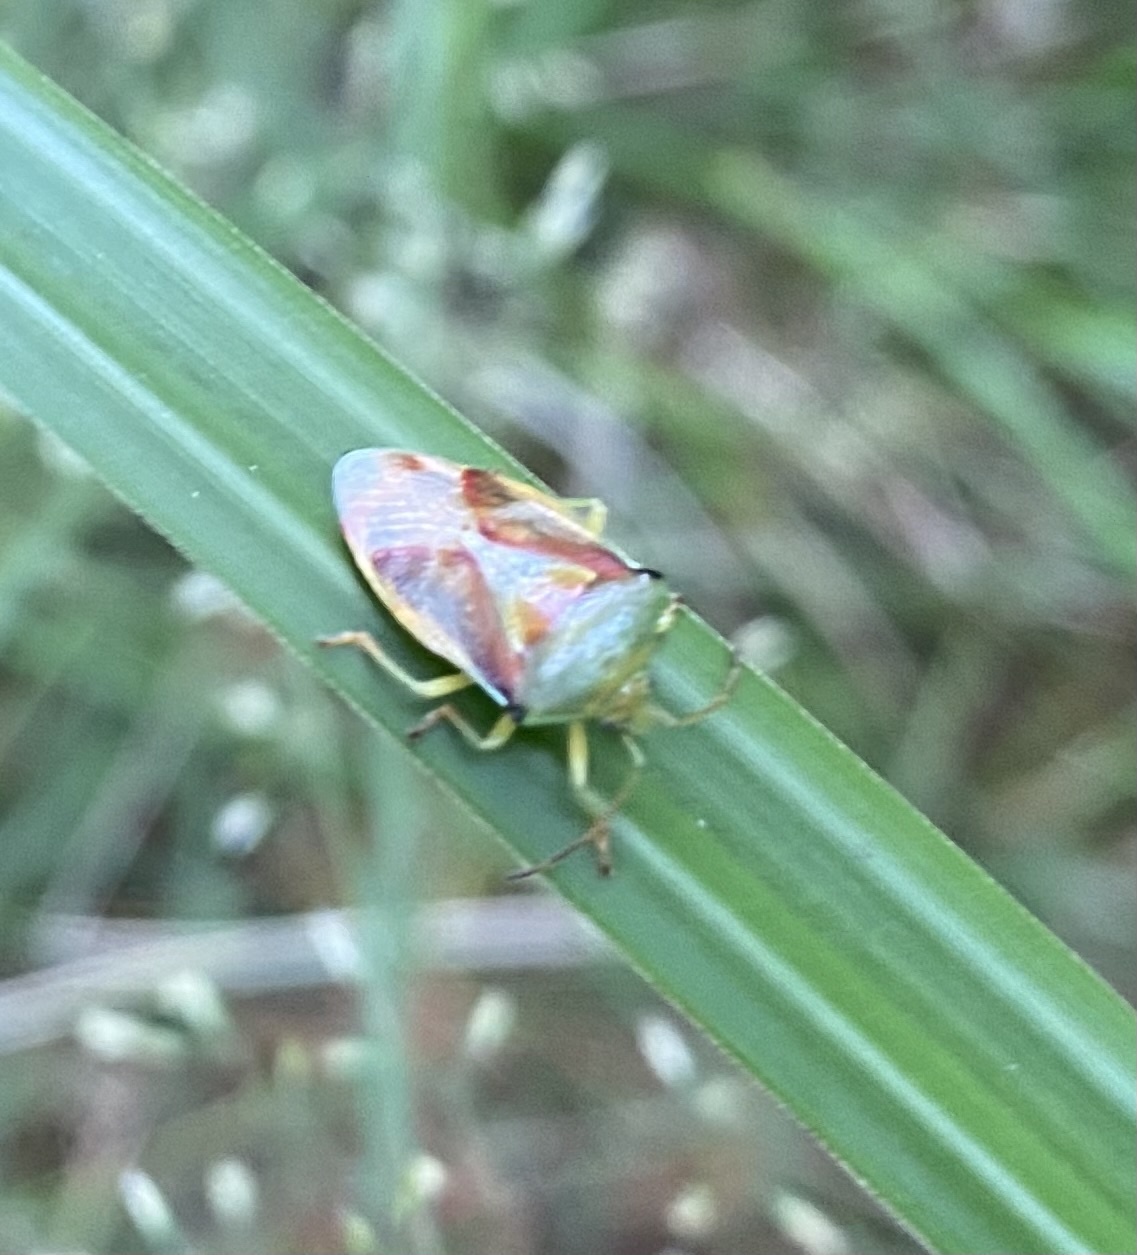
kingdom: Animalia
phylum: Arthropoda
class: Insecta
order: Hemiptera
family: Acanthosomatidae
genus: Elasmostethus
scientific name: Elasmostethus interstinctus
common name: Birch shieldbug
